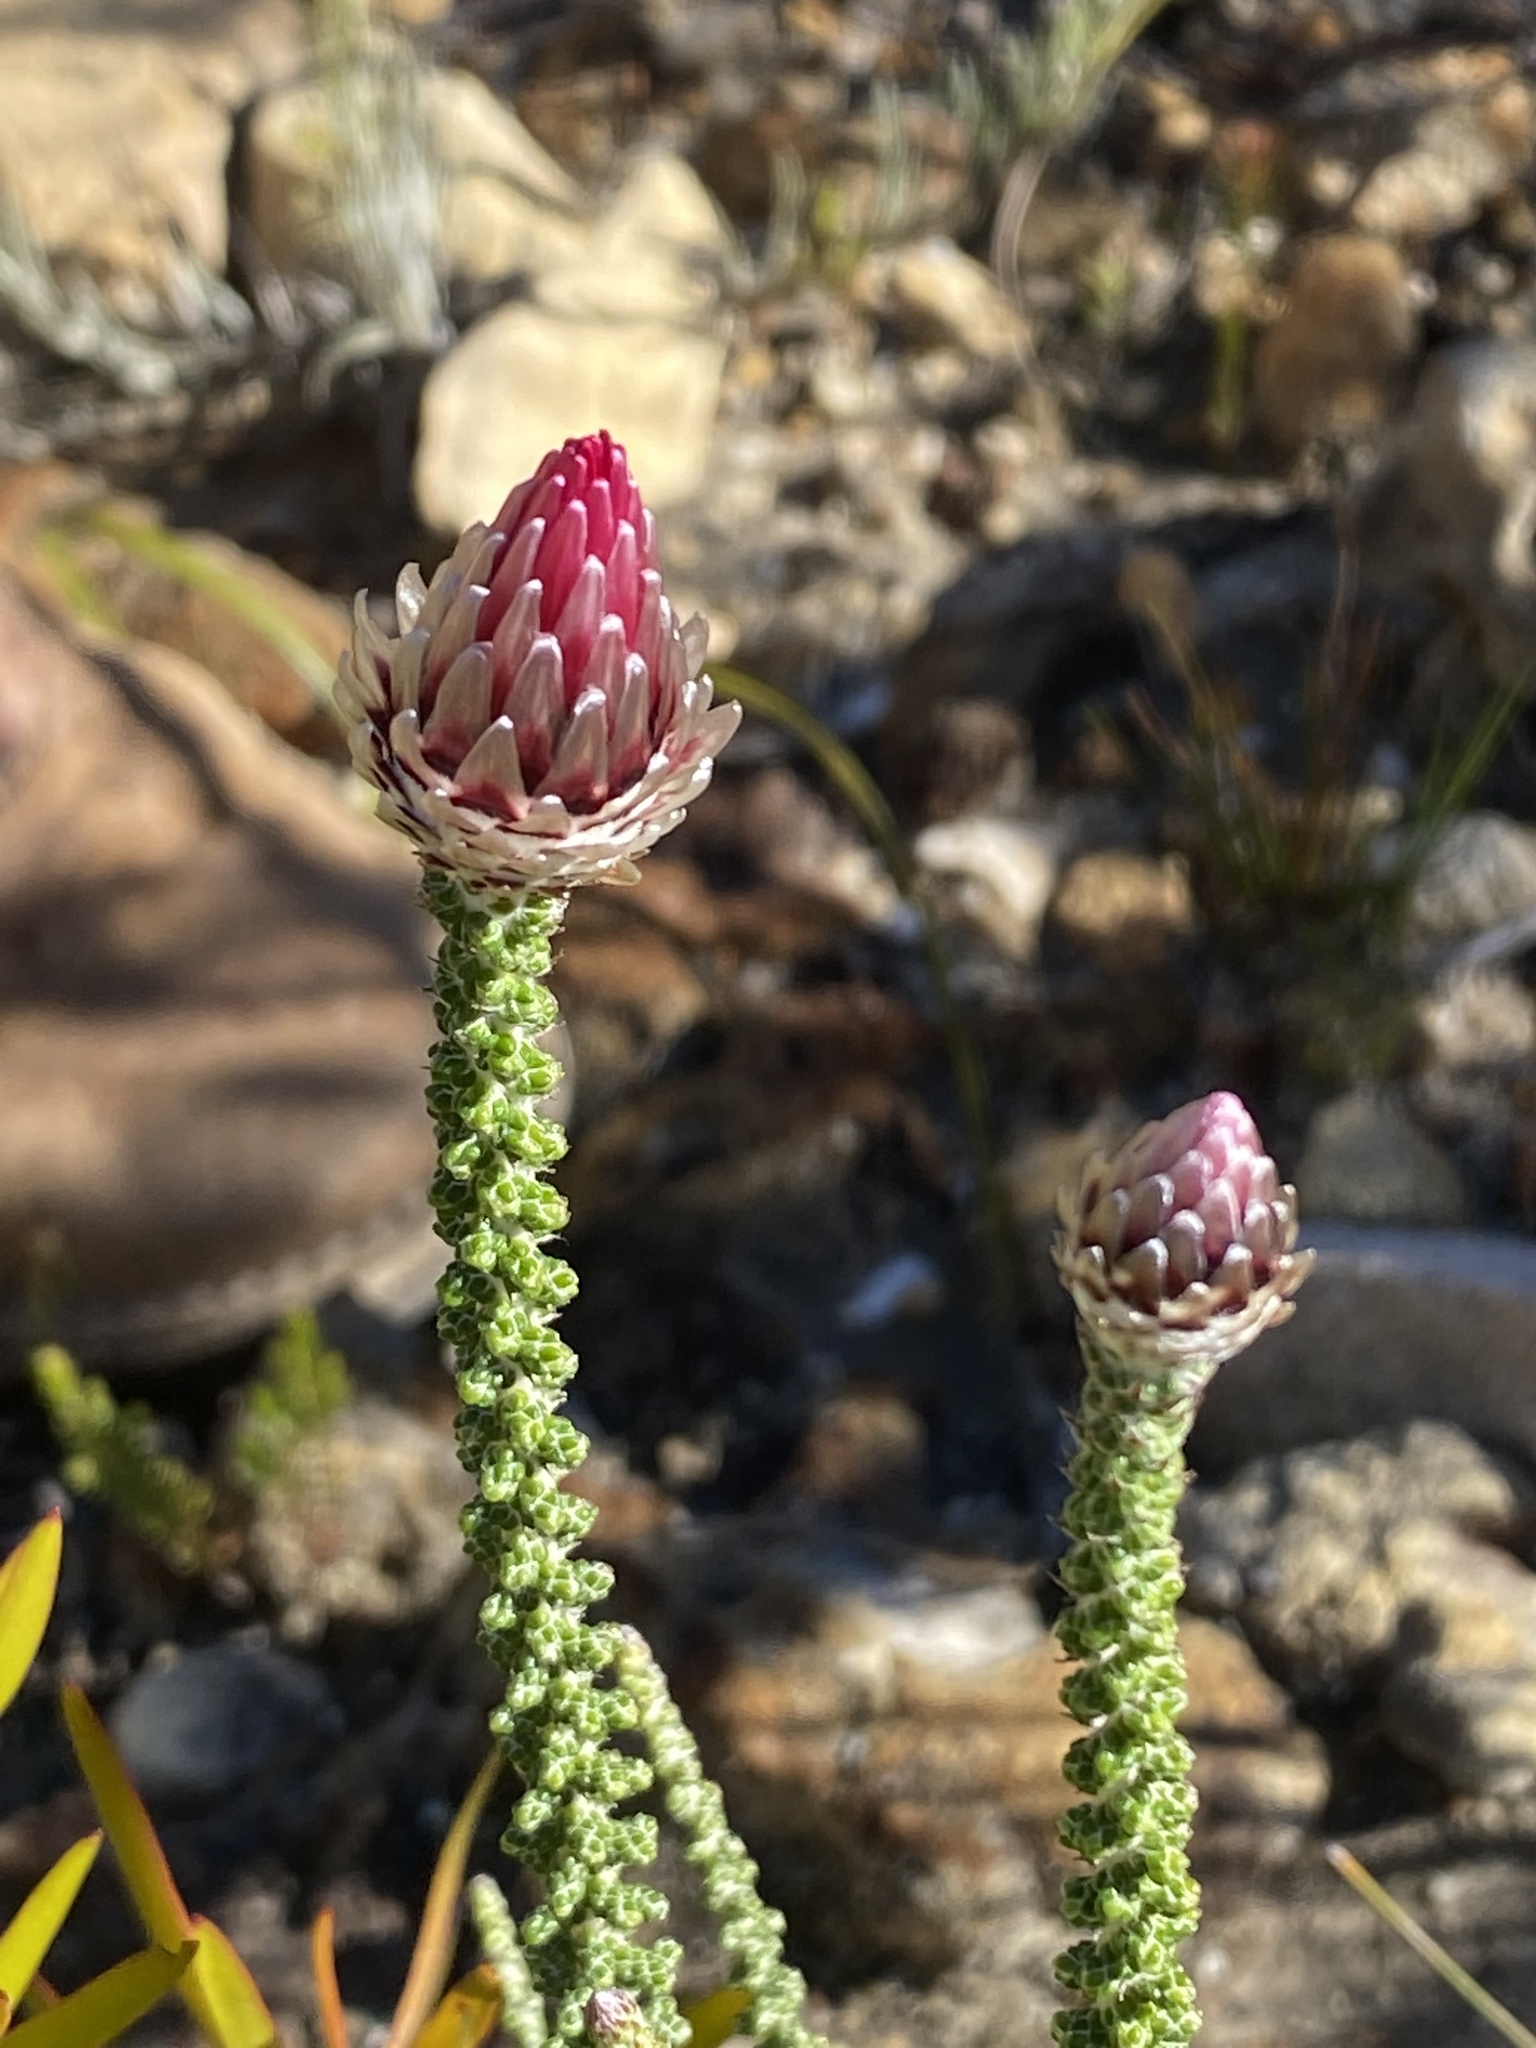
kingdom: Plantae
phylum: Tracheophyta
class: Magnoliopsida
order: Asterales
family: Asteraceae
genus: Phaenocoma
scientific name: Phaenocoma prolifera
